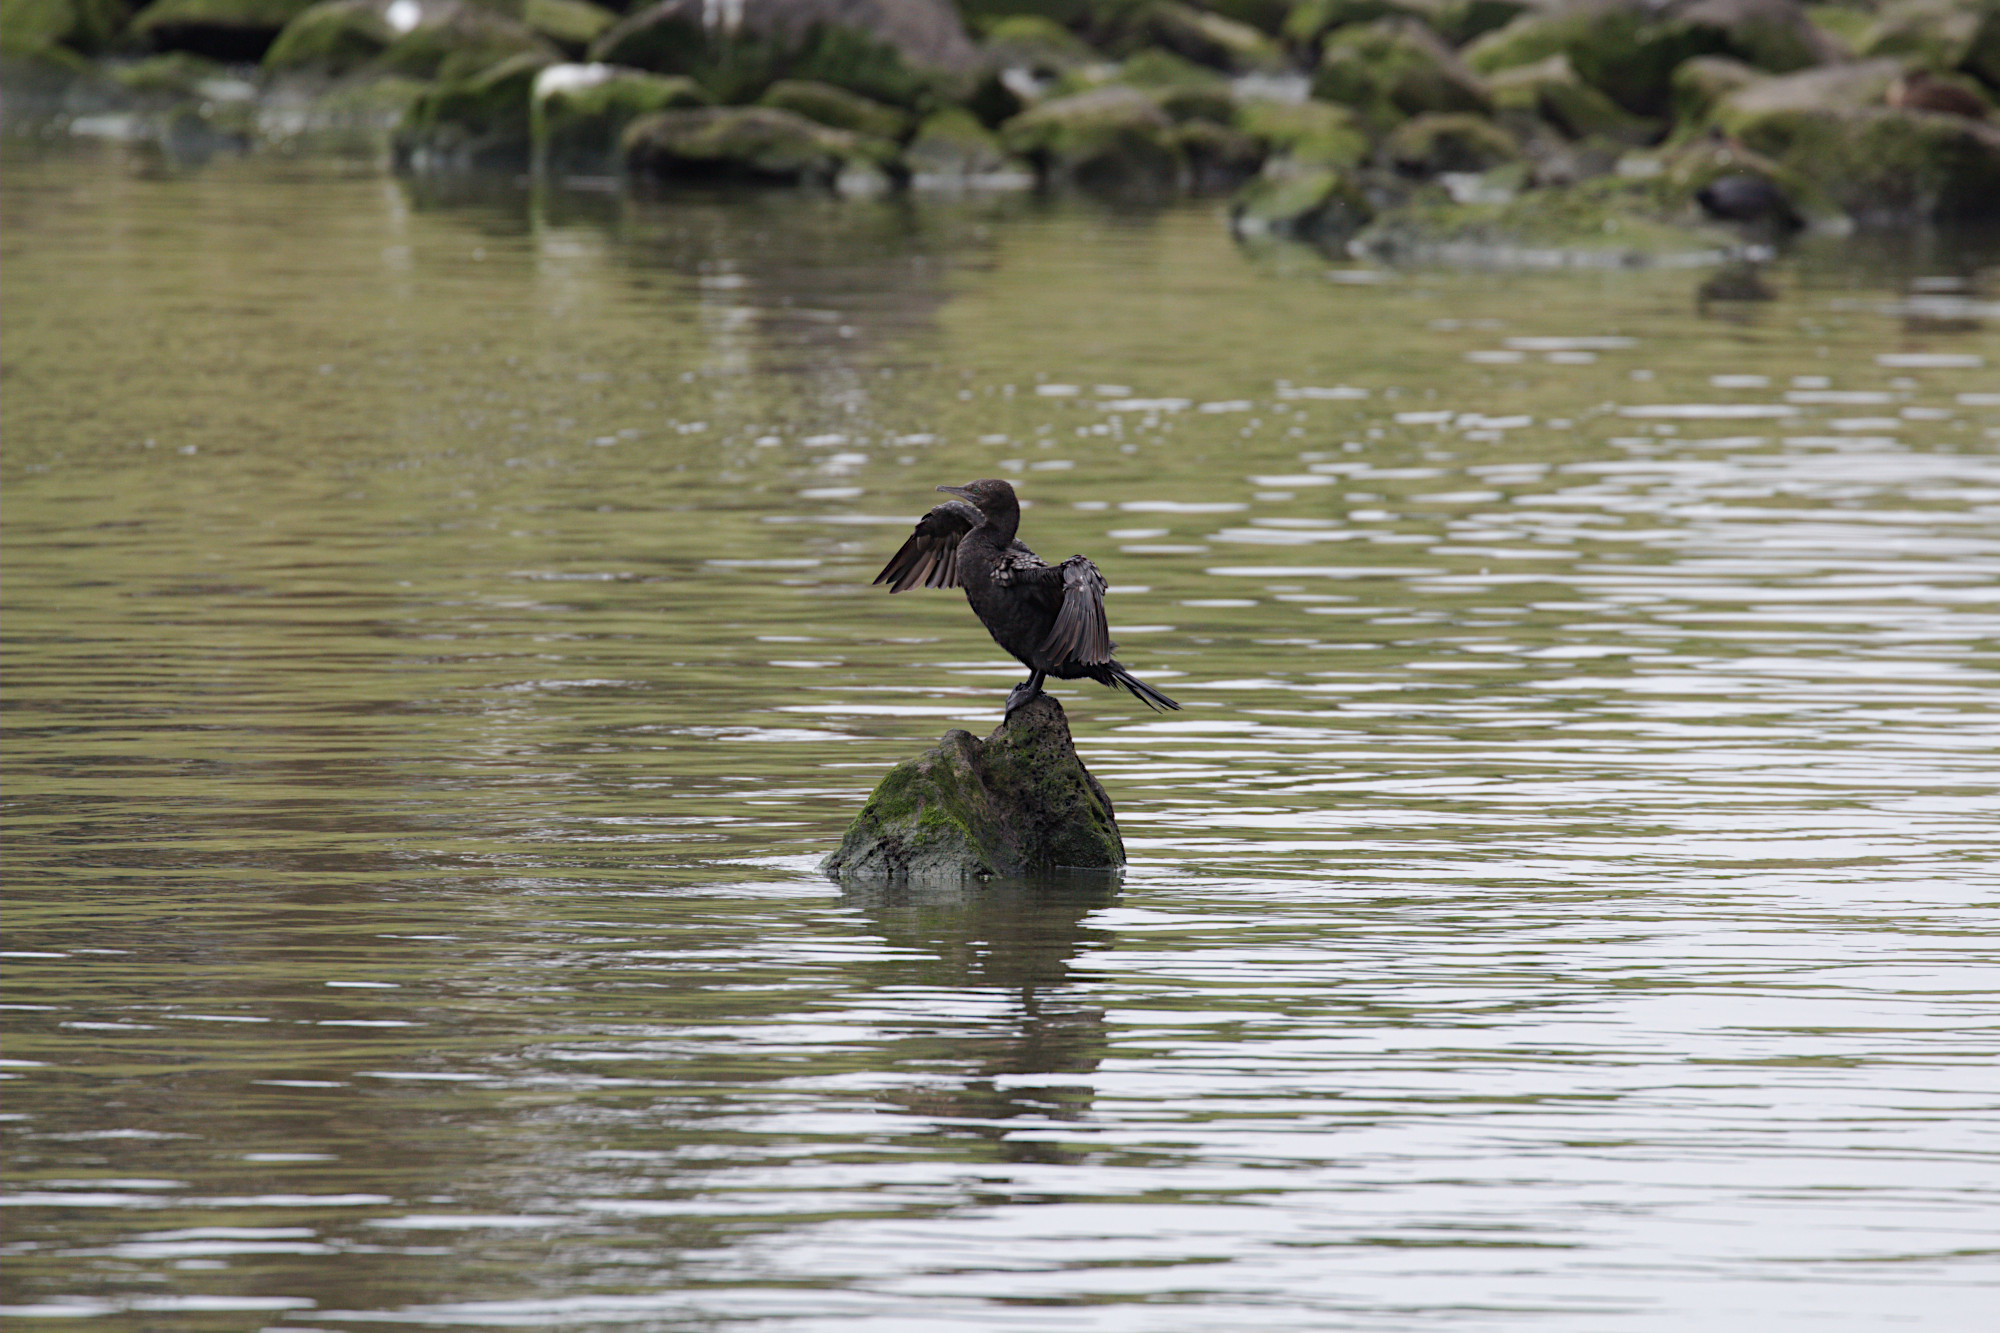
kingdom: Animalia
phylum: Chordata
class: Aves
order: Suliformes
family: Phalacrocoracidae
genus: Phalacrocorax
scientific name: Phalacrocorax sulcirostris
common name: Little black cormorant
